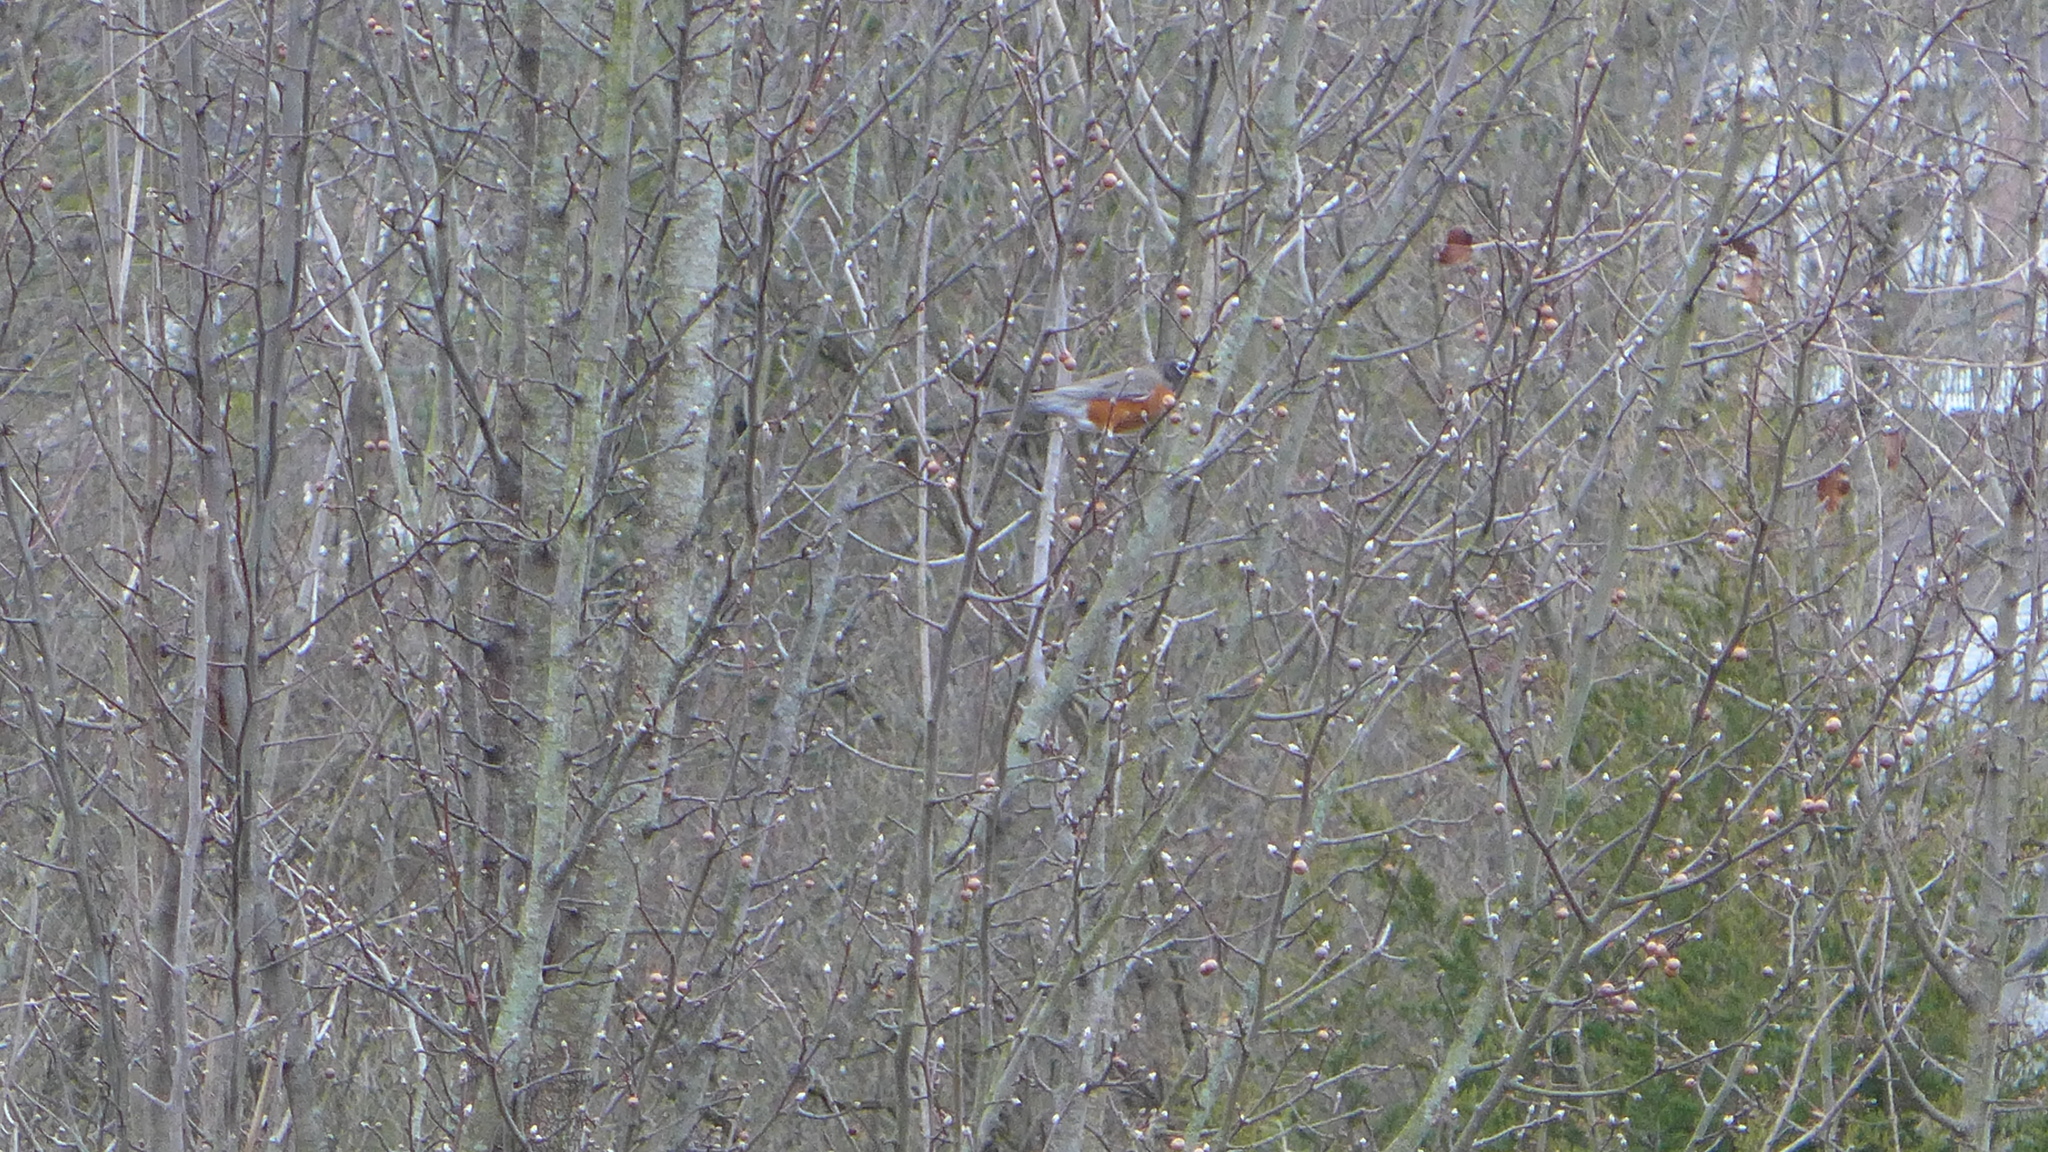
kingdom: Animalia
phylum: Chordata
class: Aves
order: Passeriformes
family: Turdidae
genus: Turdus
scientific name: Turdus migratorius
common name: American robin
